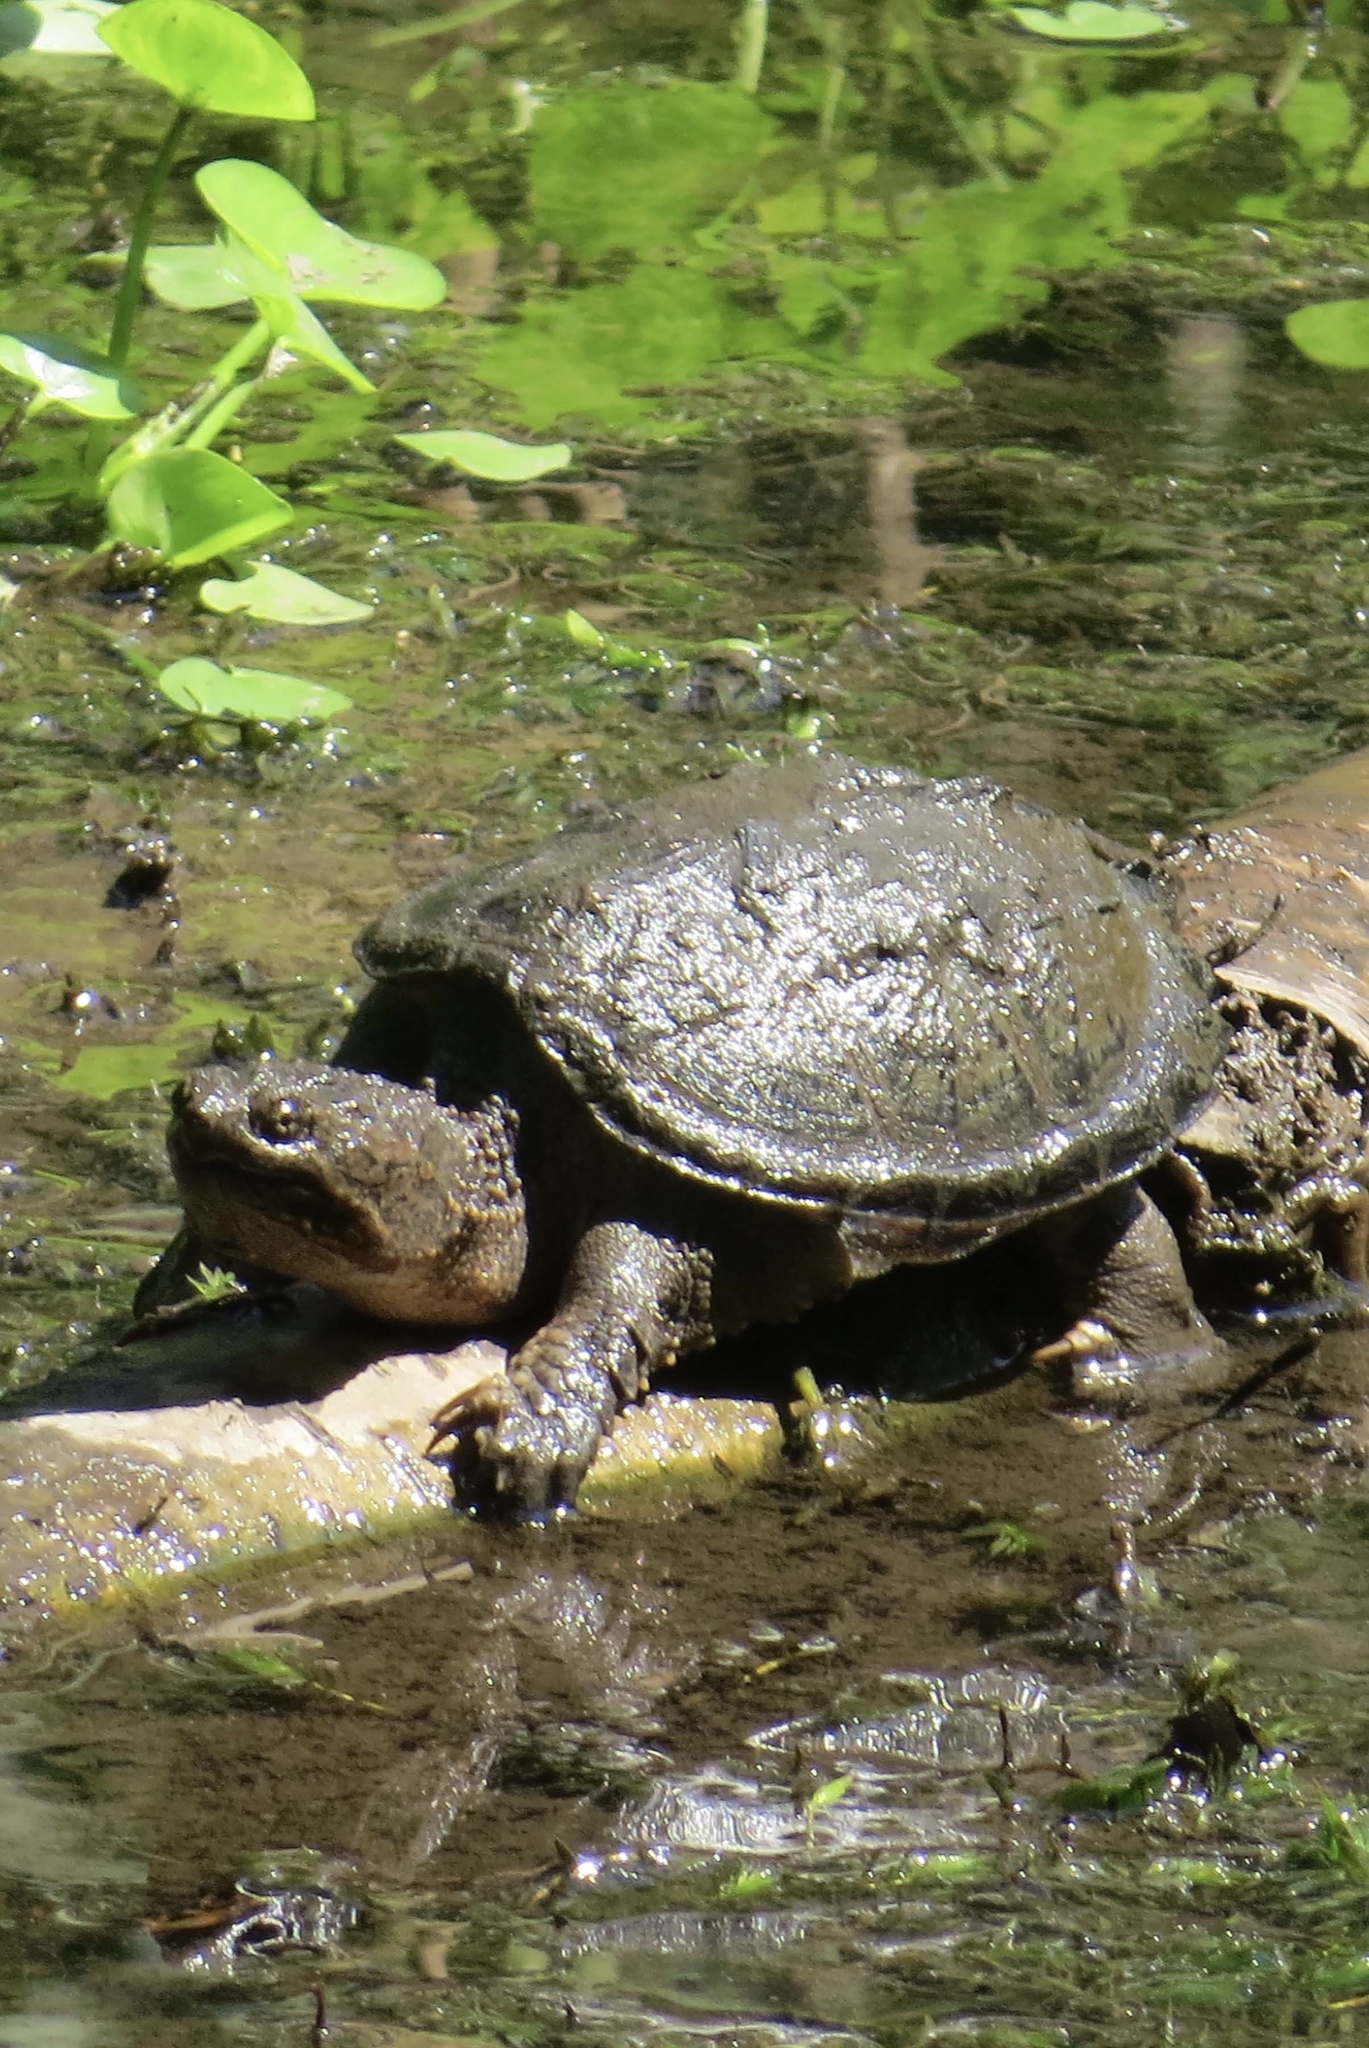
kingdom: Animalia
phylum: Chordata
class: Testudines
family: Chelydridae
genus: Chelydra
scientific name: Chelydra serpentina
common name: Common snapping turtle
